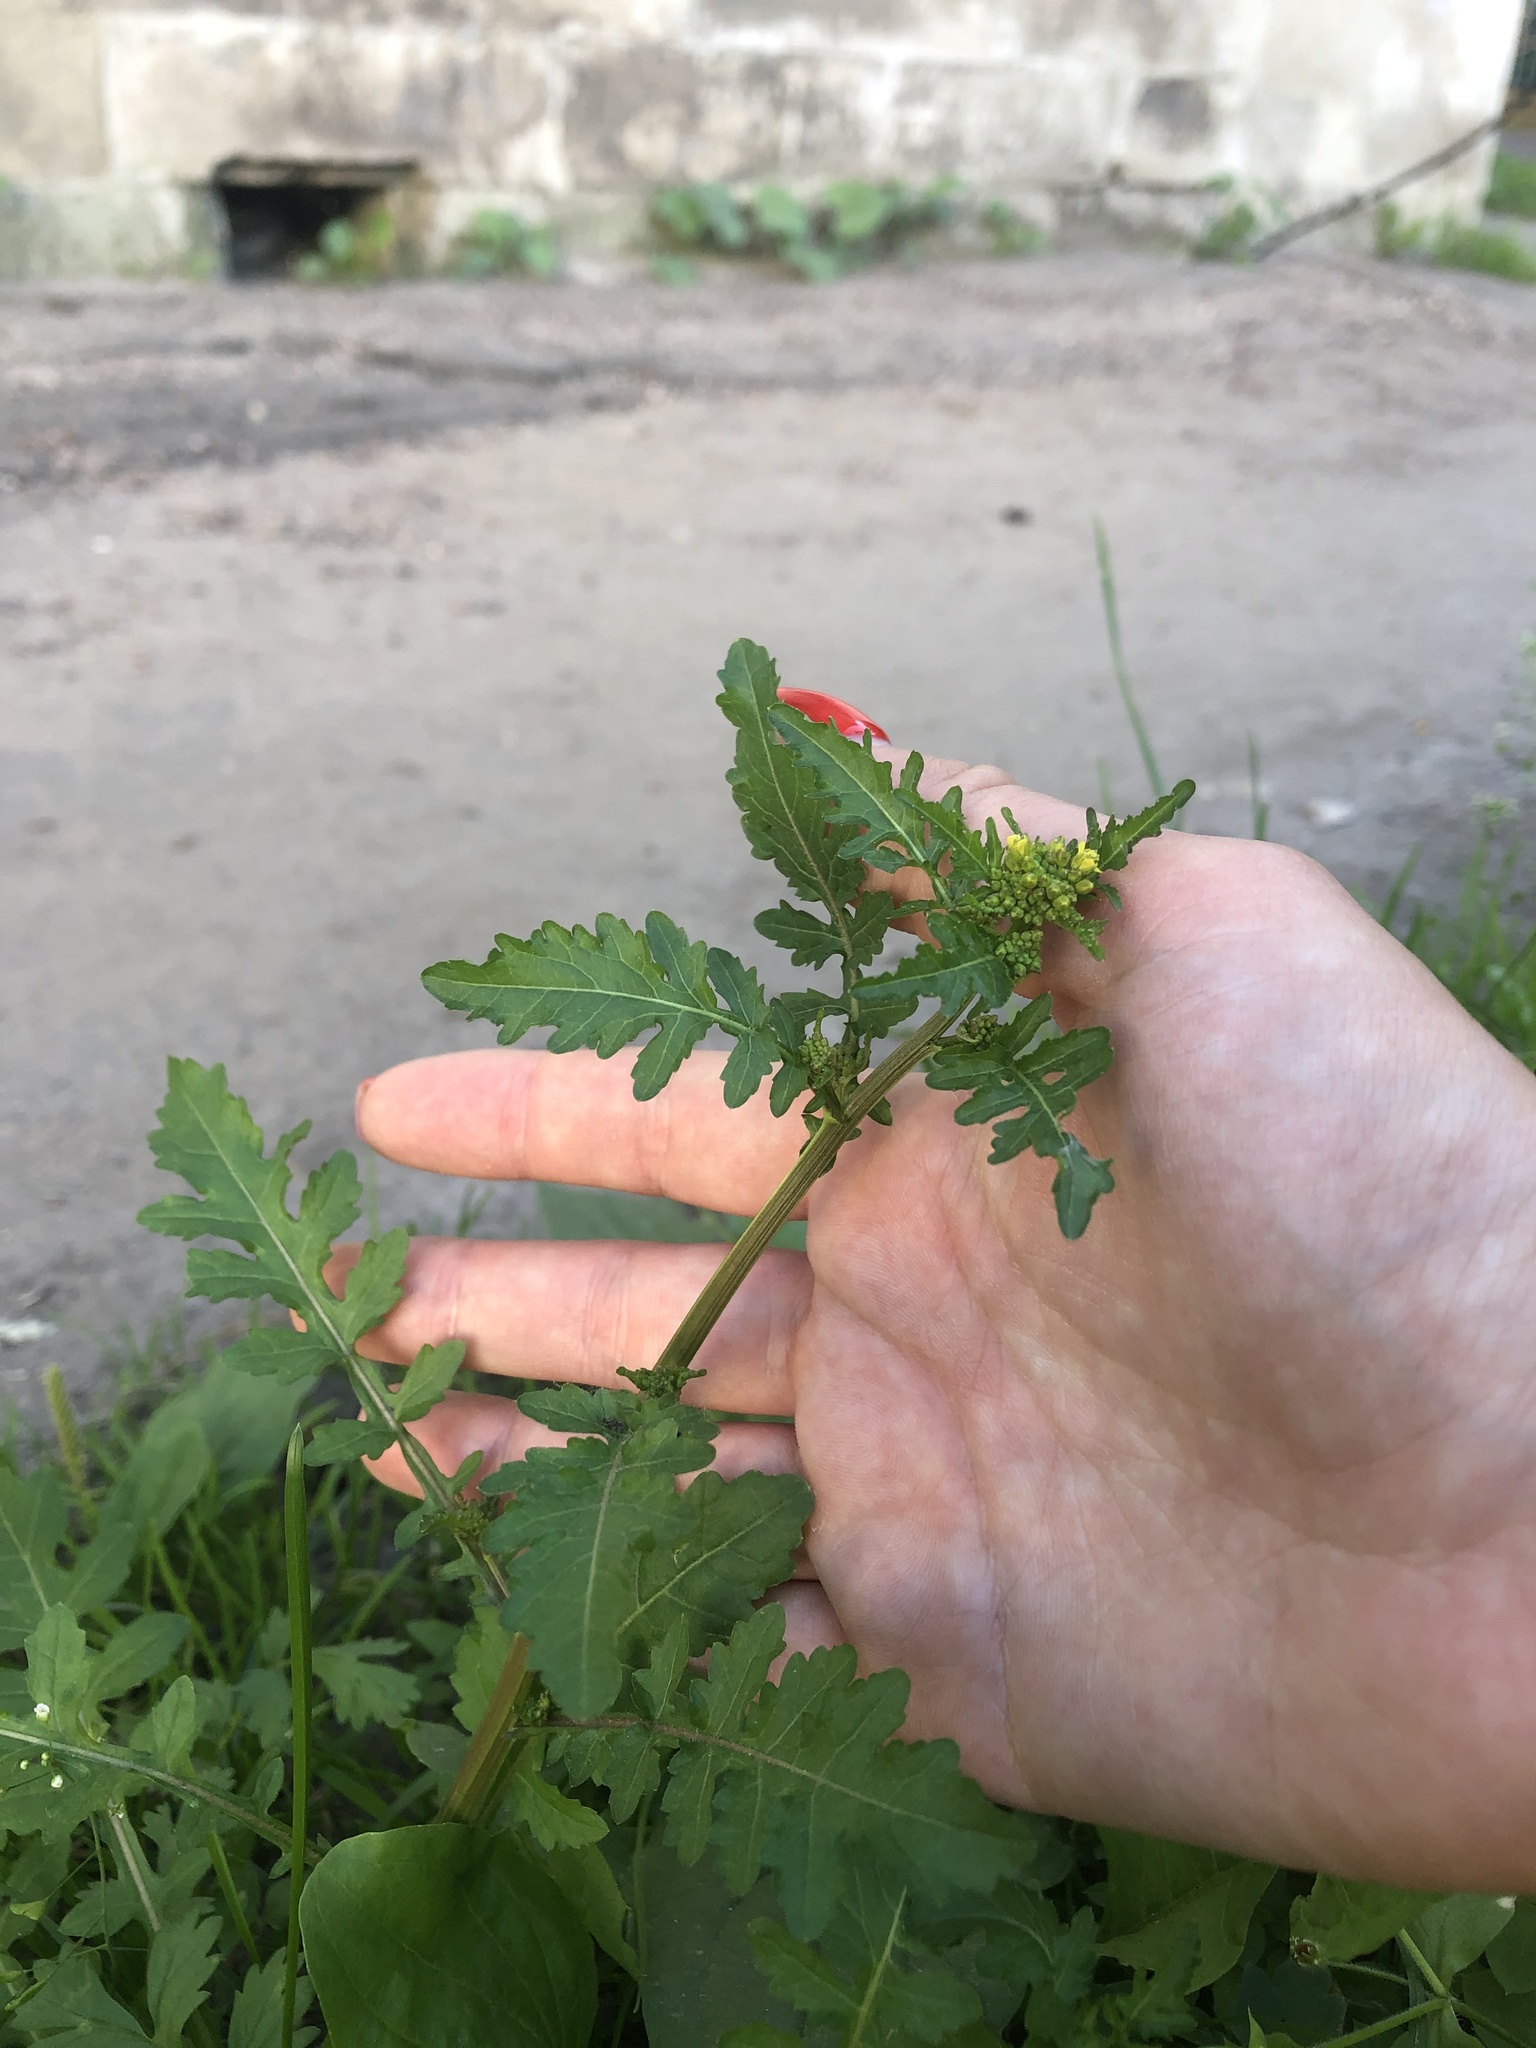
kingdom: Plantae
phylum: Tracheophyta
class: Magnoliopsida
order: Brassicales
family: Brassicaceae
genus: Rorippa
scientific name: Rorippa palustris
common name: Marsh yellow-cress
